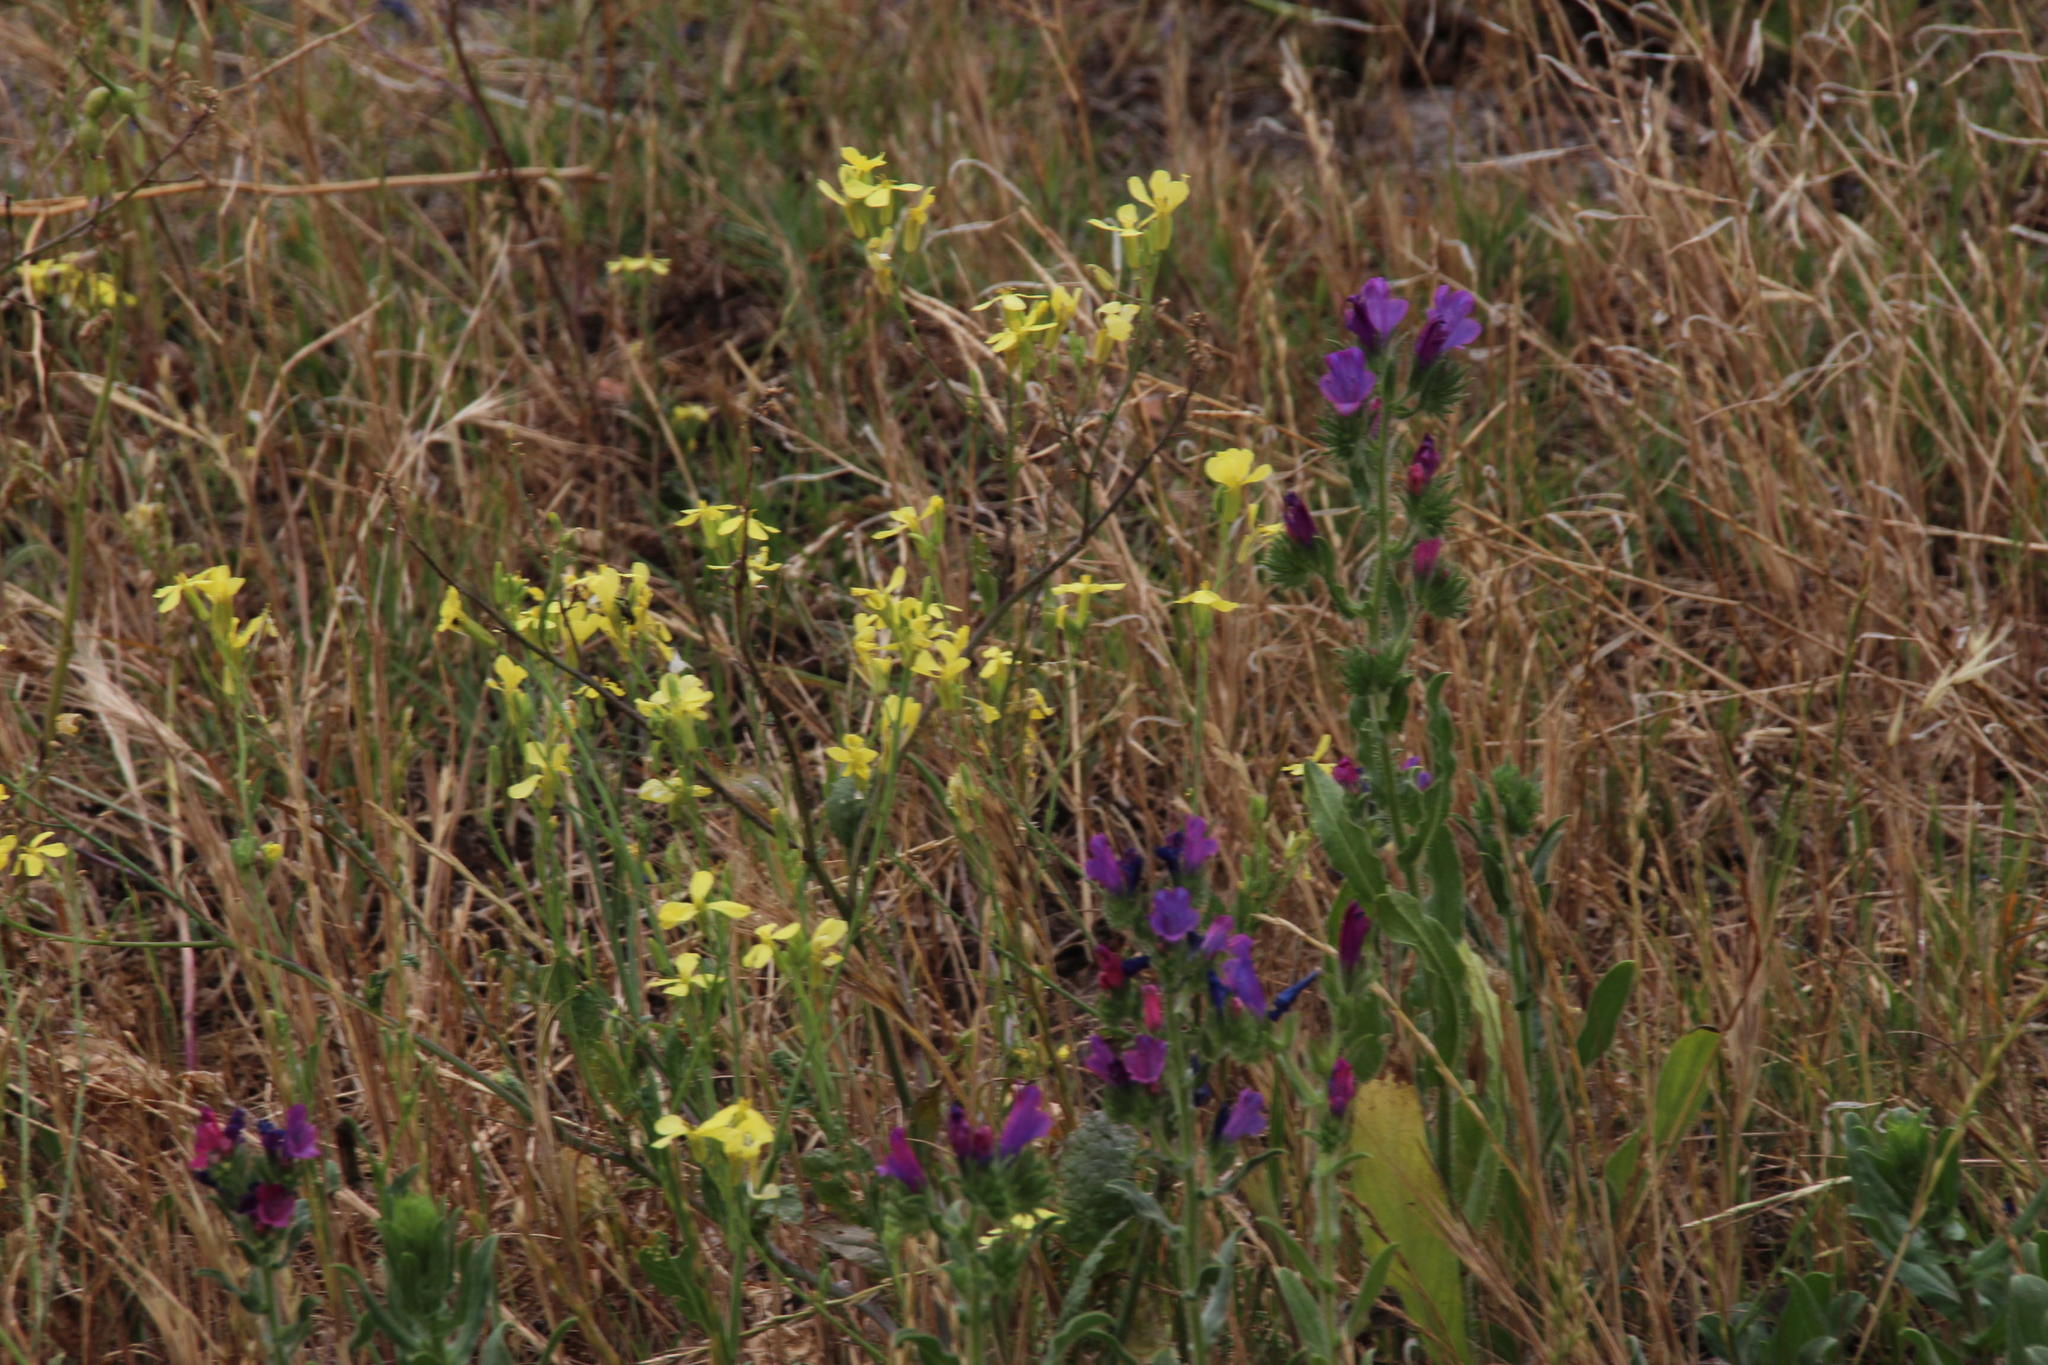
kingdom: Plantae
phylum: Tracheophyta
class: Magnoliopsida
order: Brassicales
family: Brassicaceae
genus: Raphanus
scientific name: Raphanus raphanistrum
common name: Wild radish
